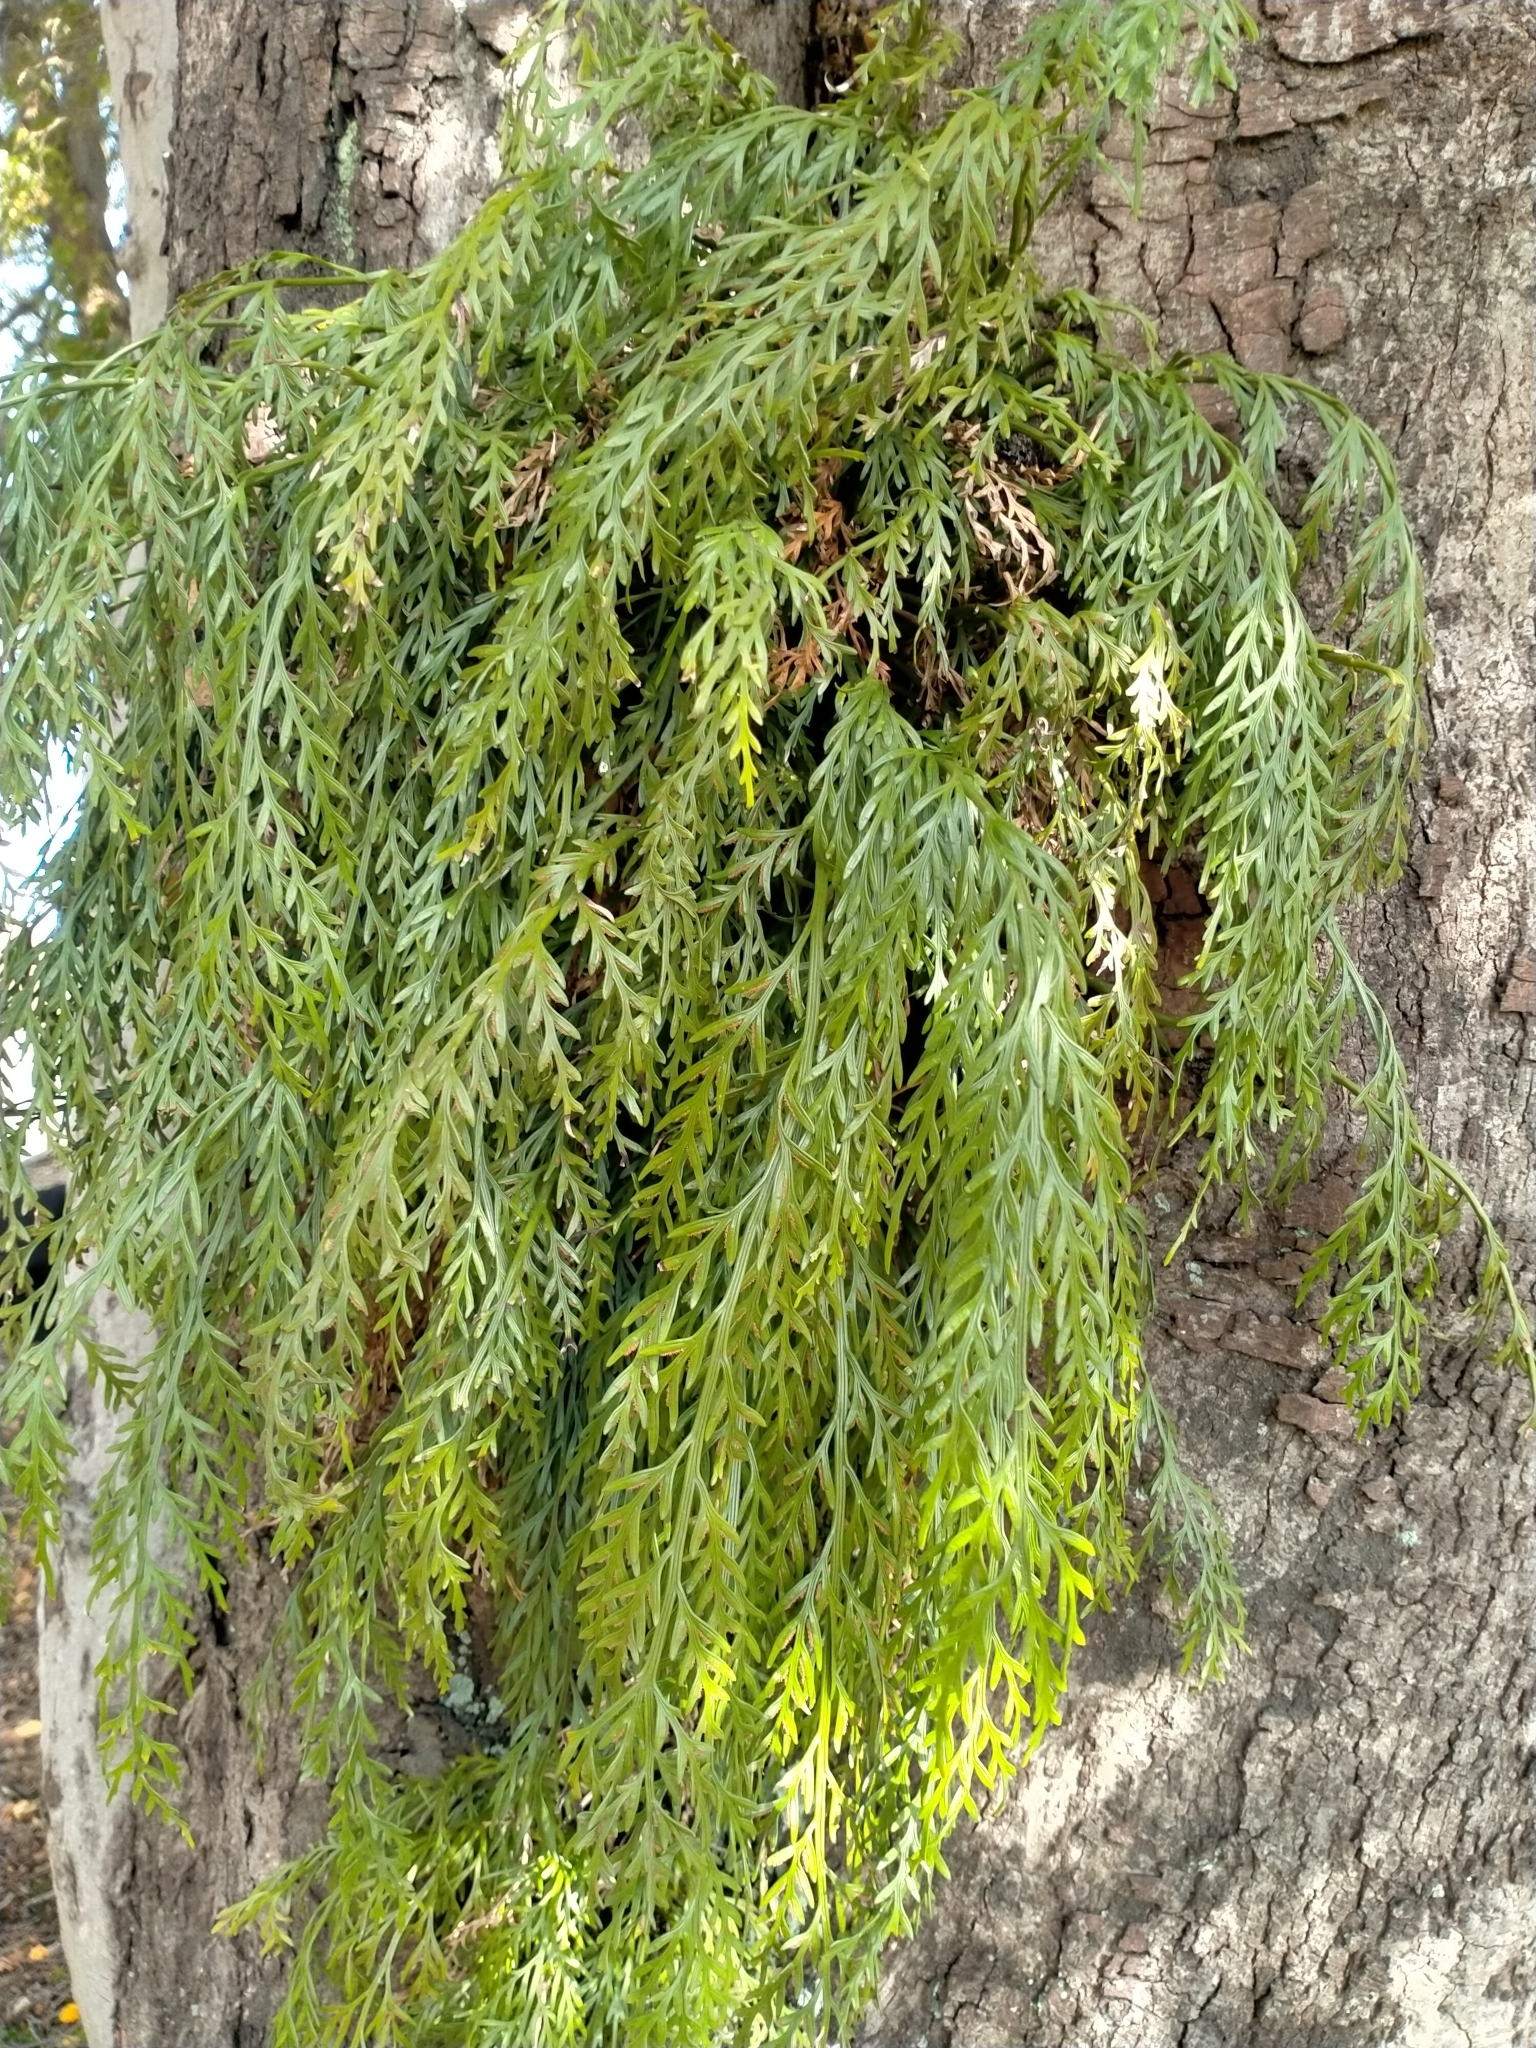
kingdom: Plantae
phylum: Tracheophyta
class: Polypodiopsida
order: Polypodiales
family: Aspleniaceae
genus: Asplenium
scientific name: Asplenium flaccidum
